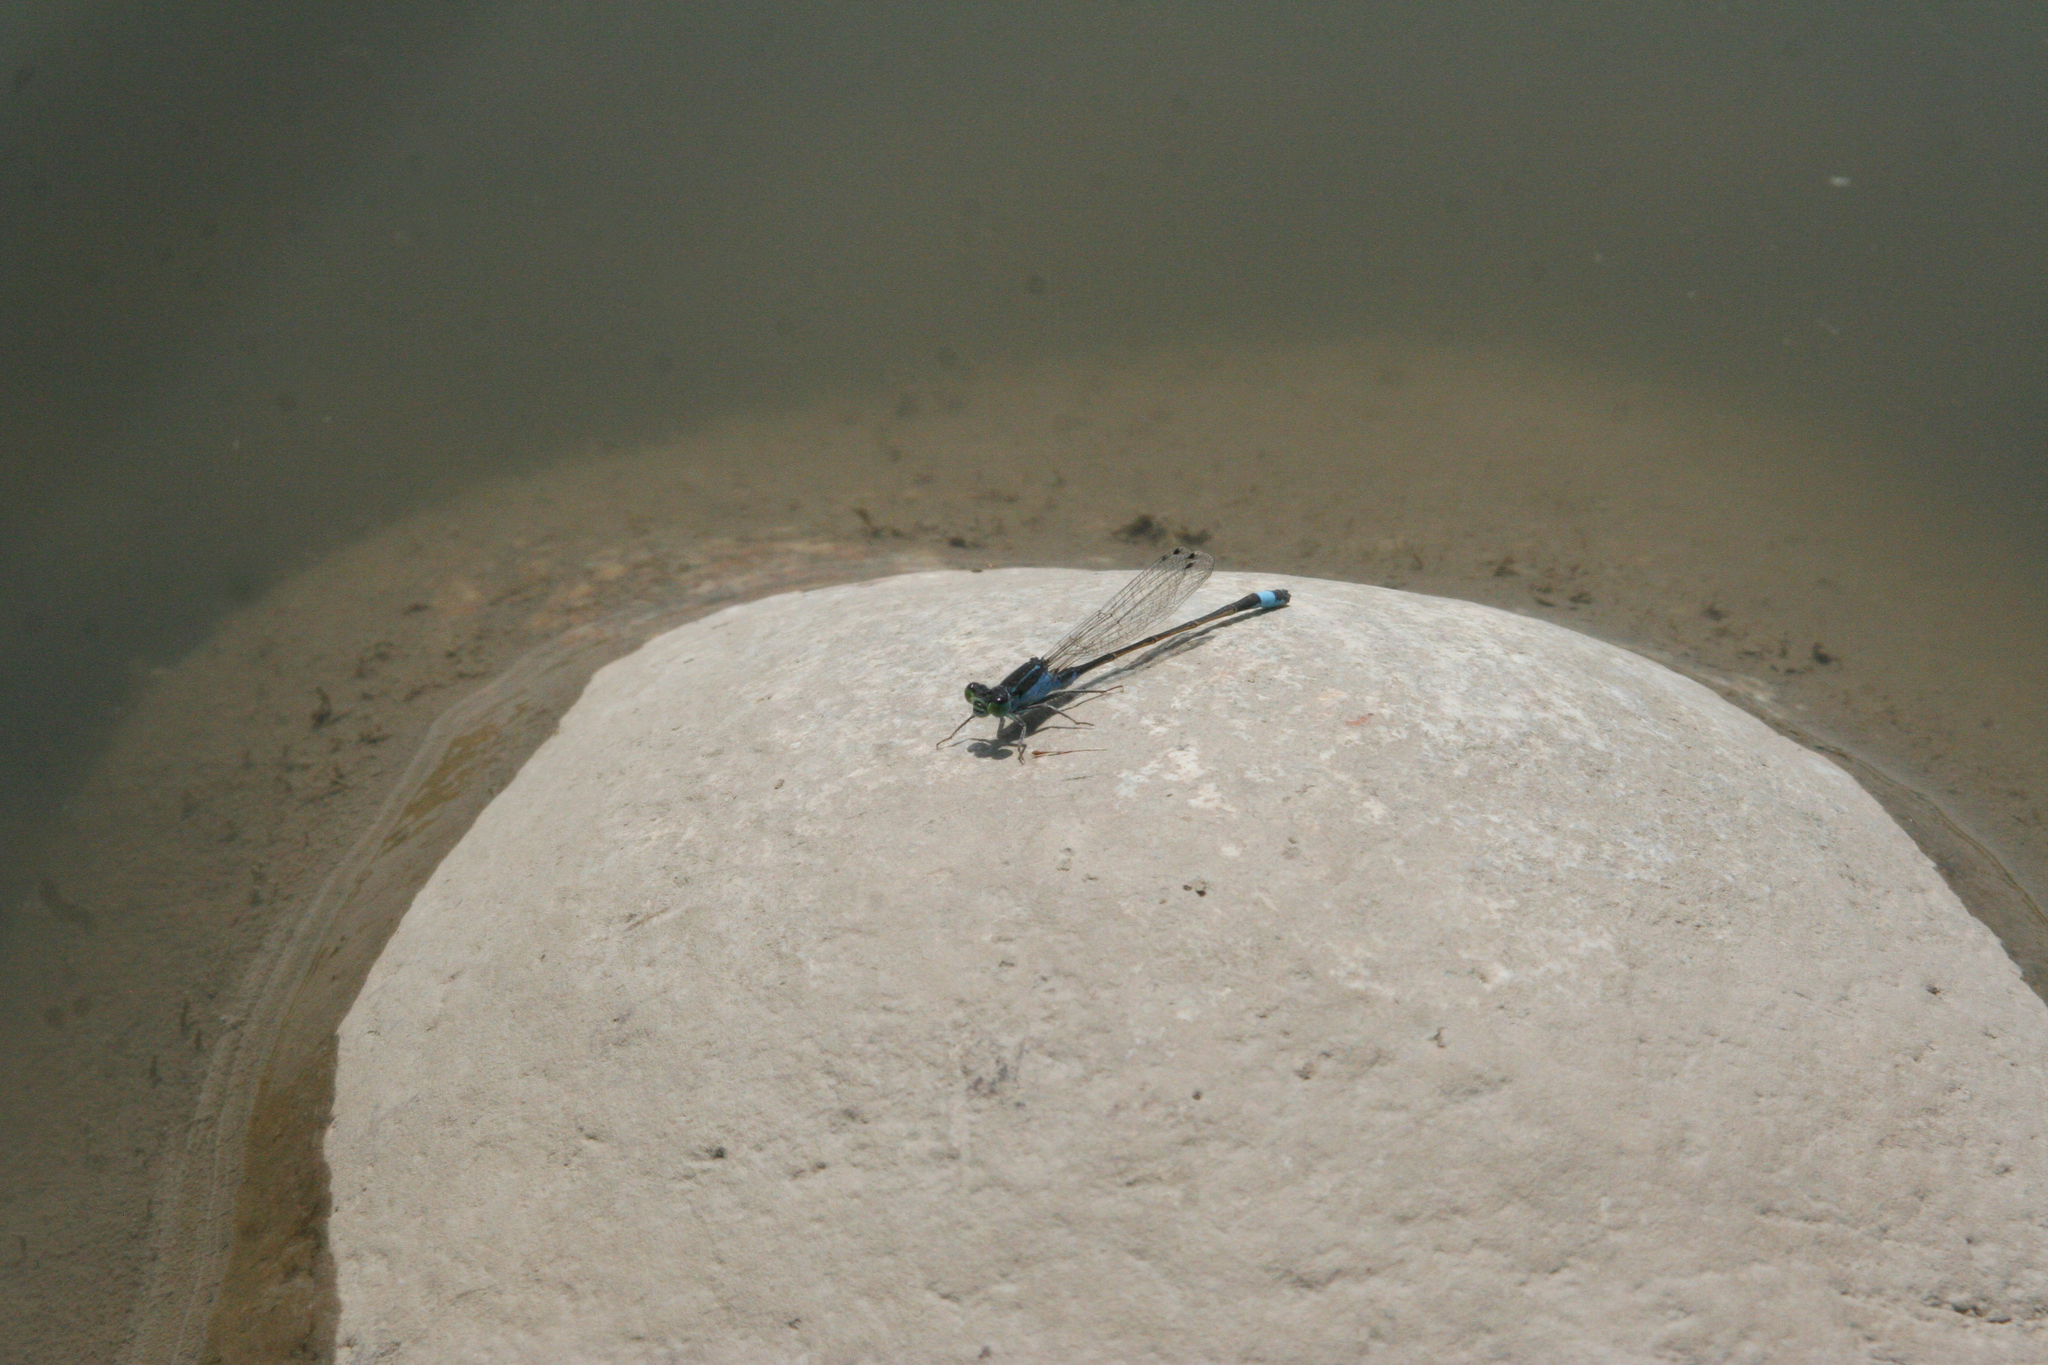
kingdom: Animalia
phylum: Arthropoda
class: Insecta
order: Odonata
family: Coenagrionidae
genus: Ischnura
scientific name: Ischnura fountaineae
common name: Oasis bluetail
